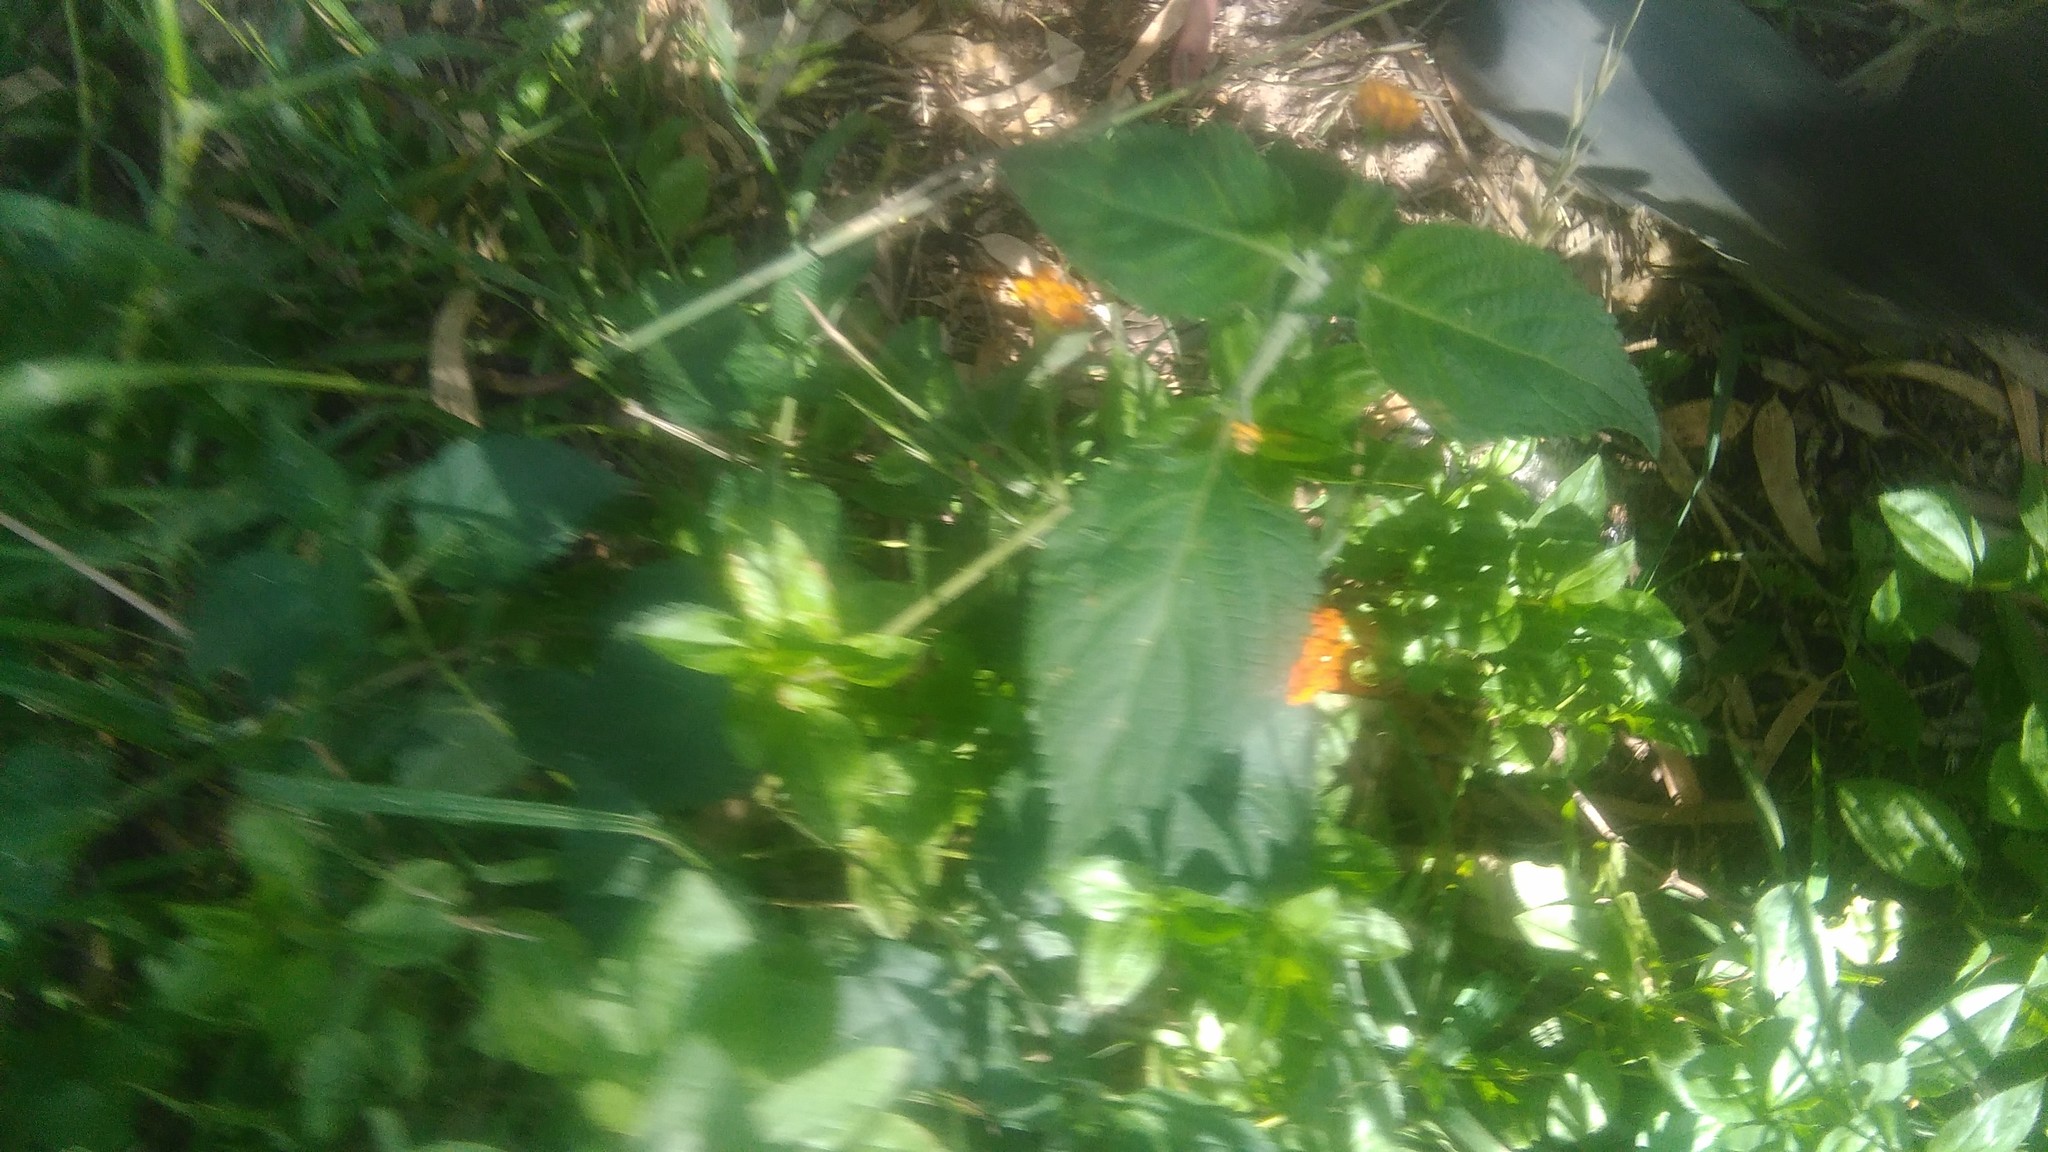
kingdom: Plantae
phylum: Tracheophyta
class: Magnoliopsida
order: Lamiales
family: Verbenaceae
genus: Lantana
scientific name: Lantana camara
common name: Lantana
